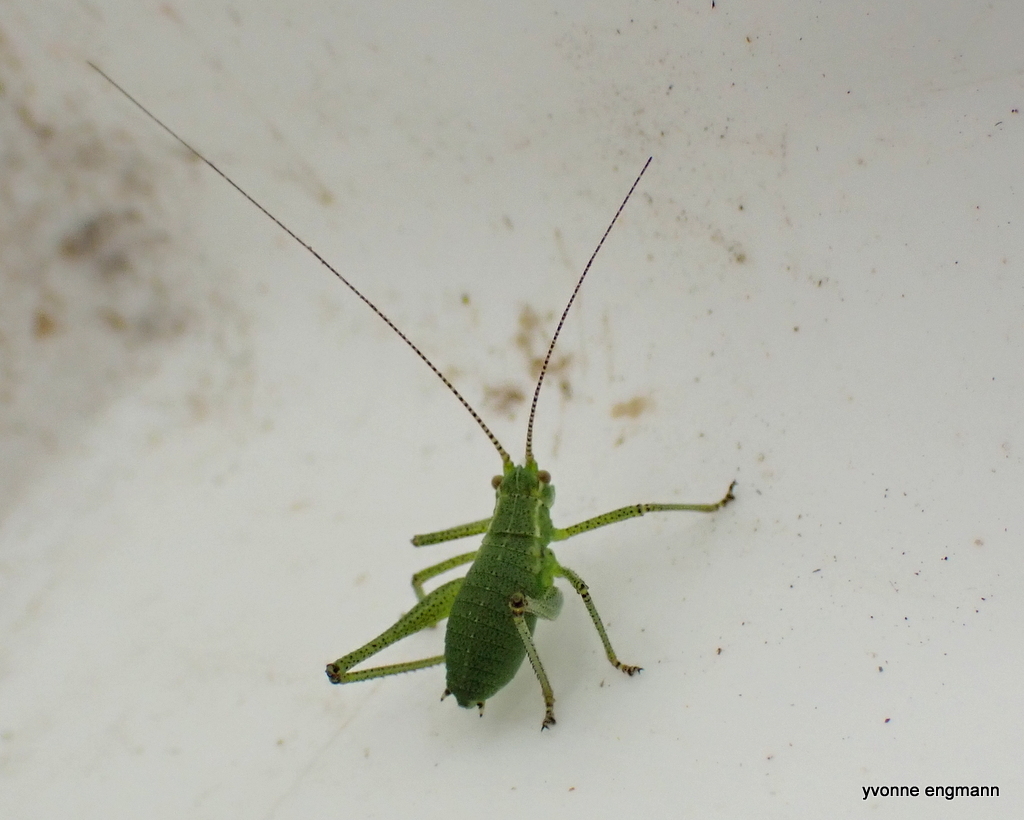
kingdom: Animalia
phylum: Arthropoda
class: Insecta
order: Orthoptera
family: Tettigoniidae
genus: Leptophyes
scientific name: Leptophyes punctatissima
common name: Speckled bush-cricket
